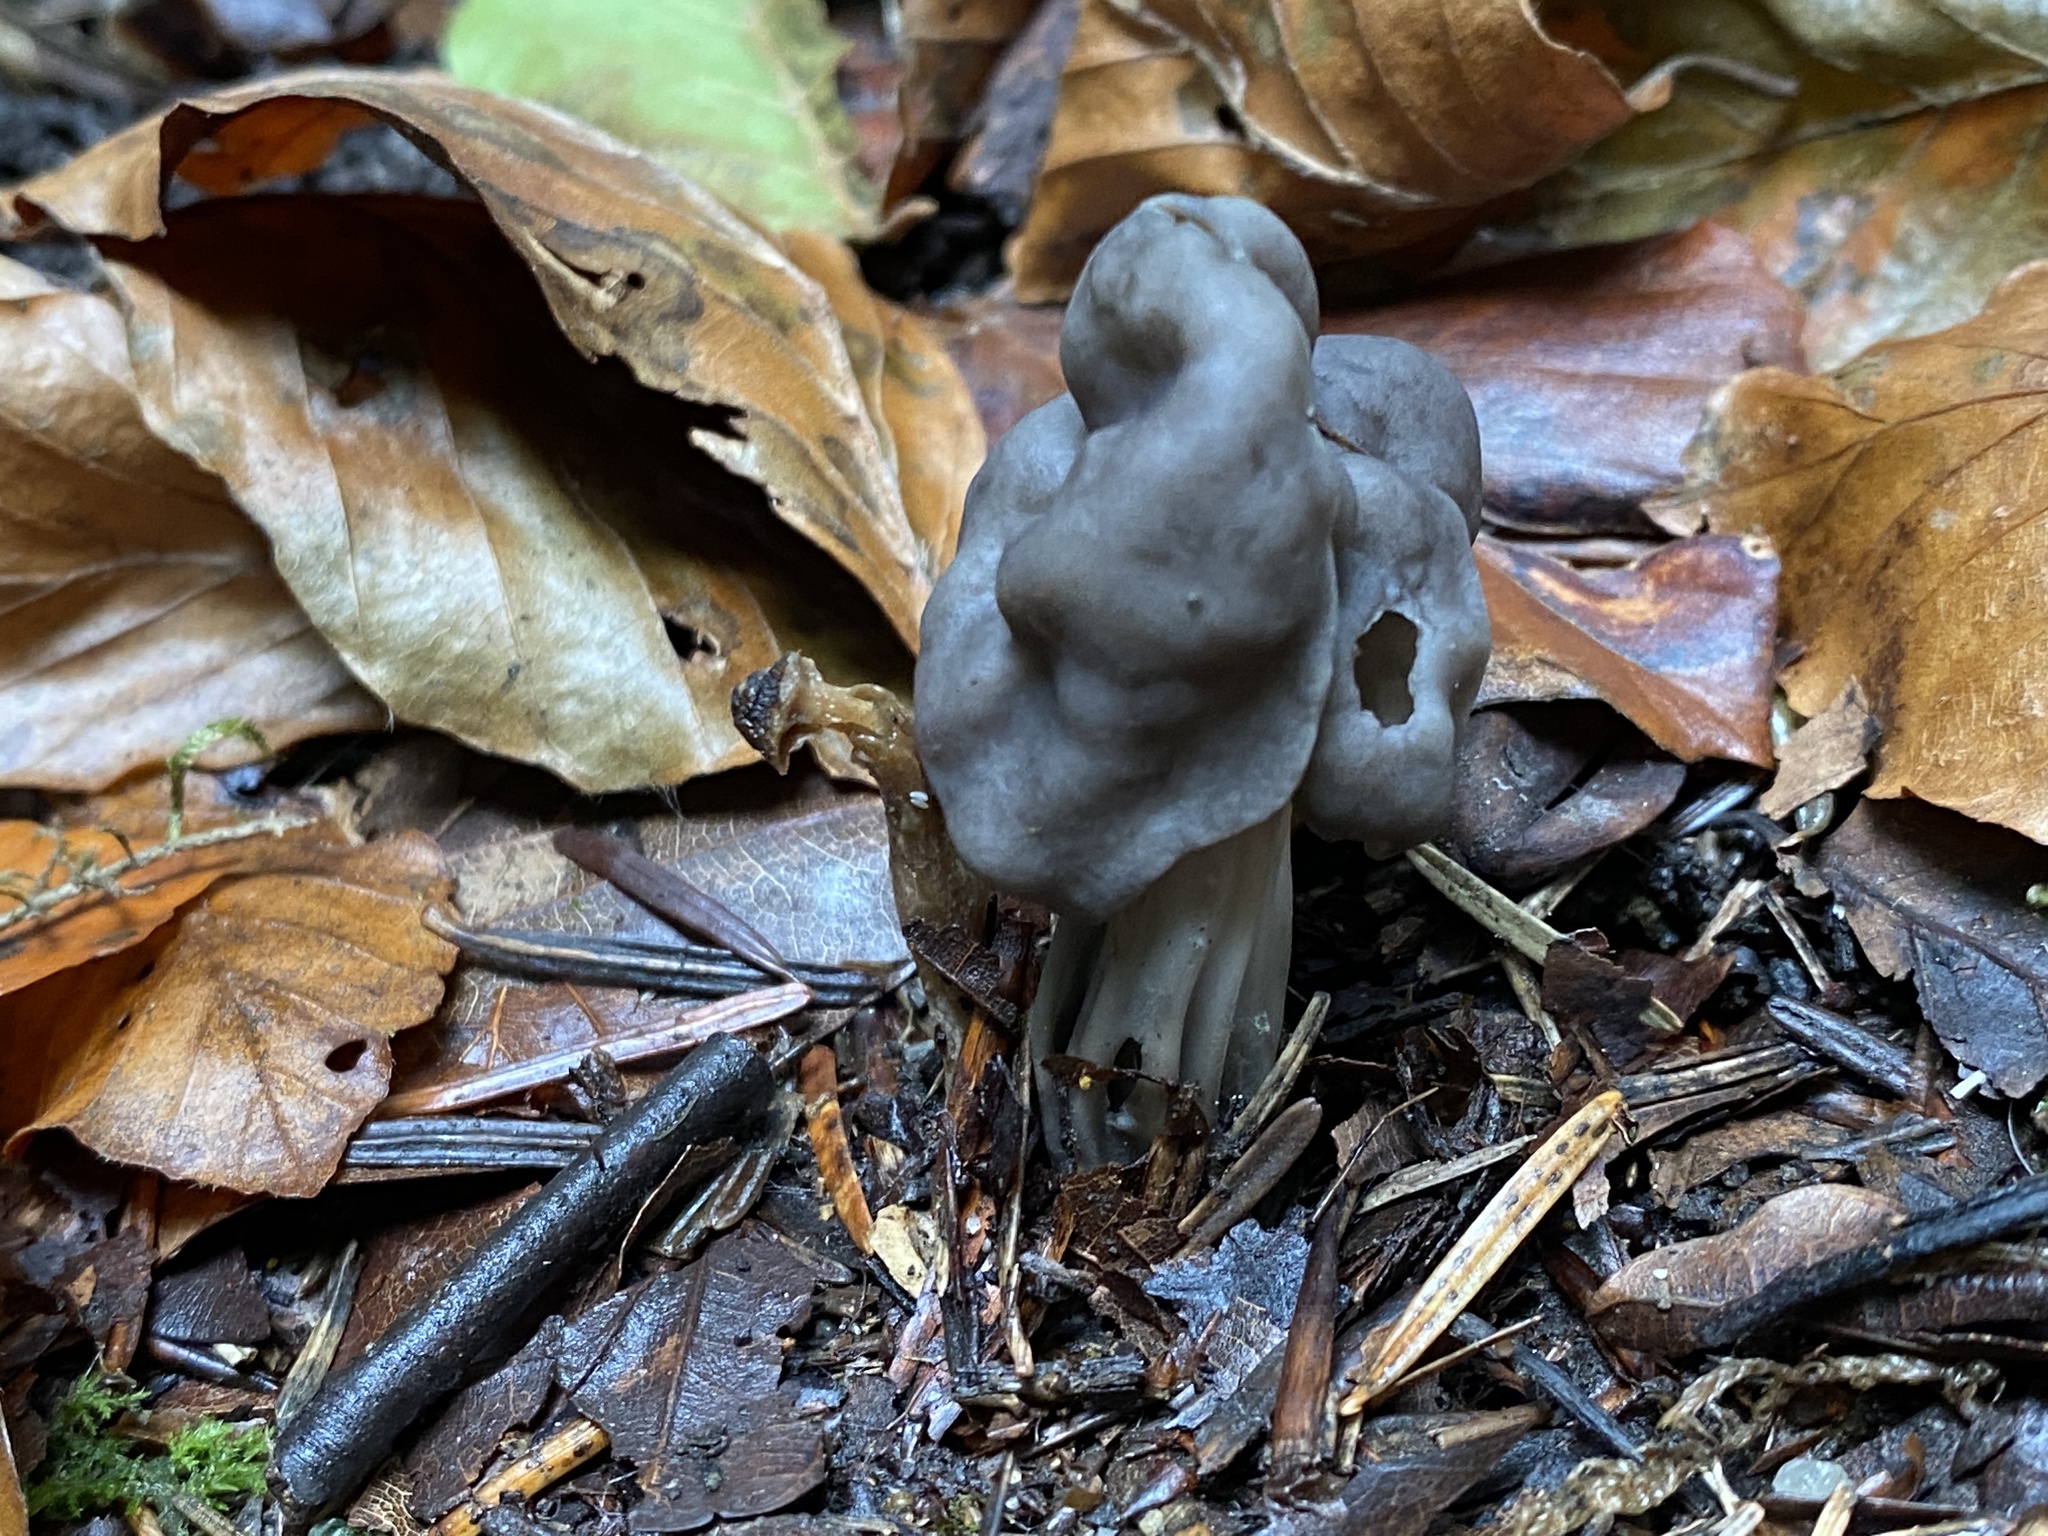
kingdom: Fungi
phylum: Ascomycota
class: Pezizomycetes
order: Pezizales
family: Helvellaceae
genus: Helvella
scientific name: Helvella lacunosa
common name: Elfin saddle
